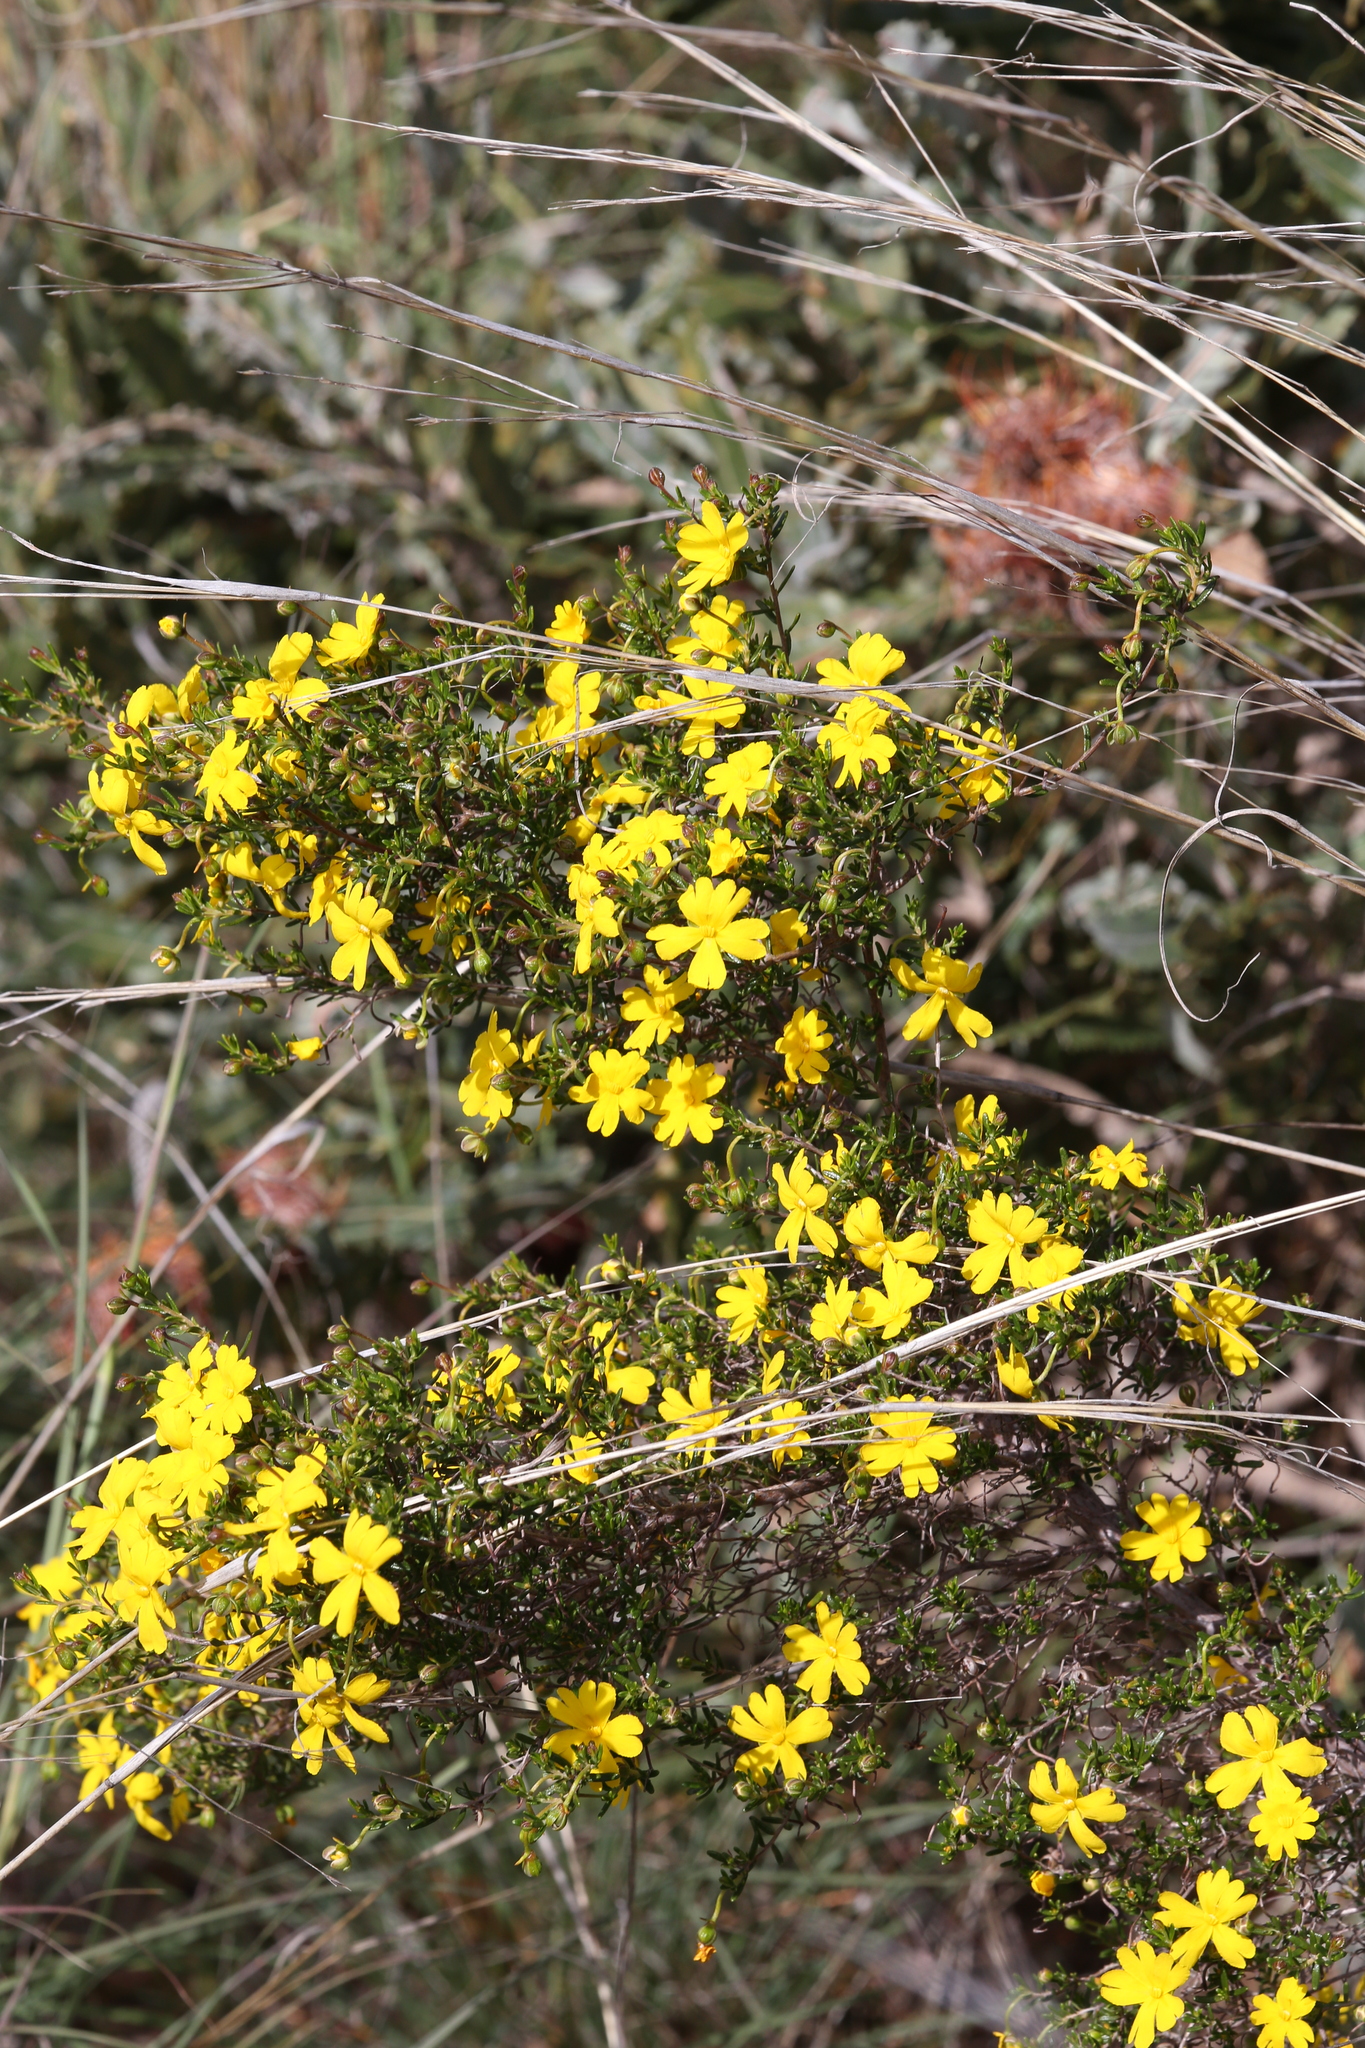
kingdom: Plantae
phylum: Tracheophyta
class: Magnoliopsida
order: Dilleniales
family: Dilleniaceae
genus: Hibbertia
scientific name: Hibbertia hypericoides
